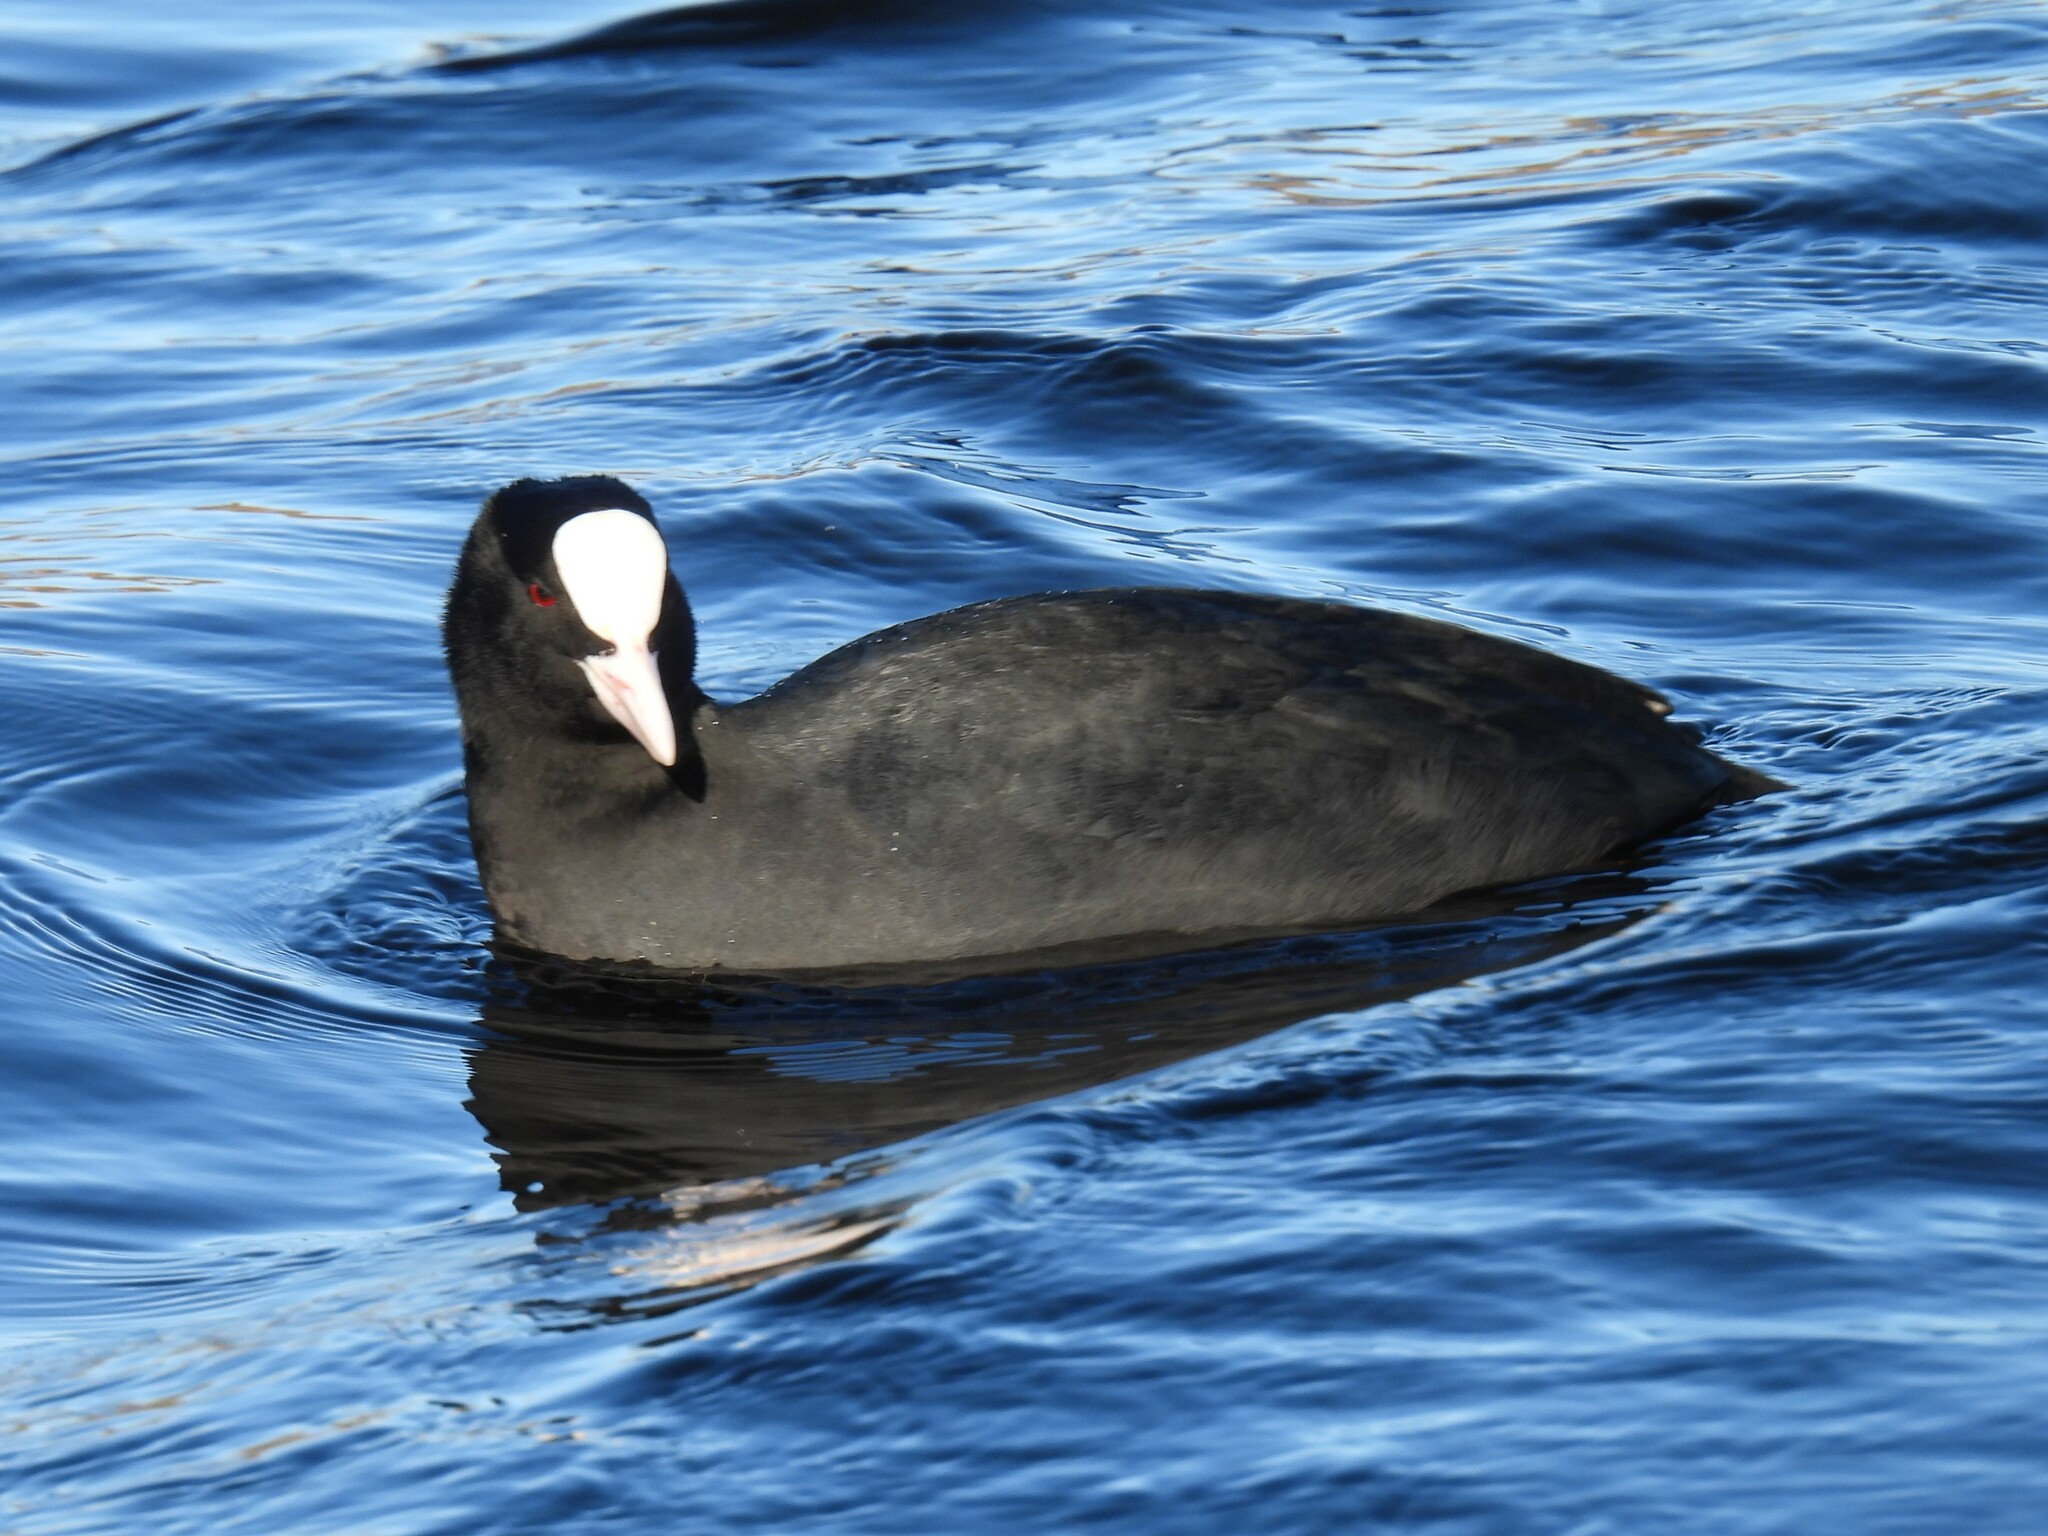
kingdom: Animalia
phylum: Chordata
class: Aves
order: Gruiformes
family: Rallidae
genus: Fulica
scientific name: Fulica atra
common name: Eurasian coot
